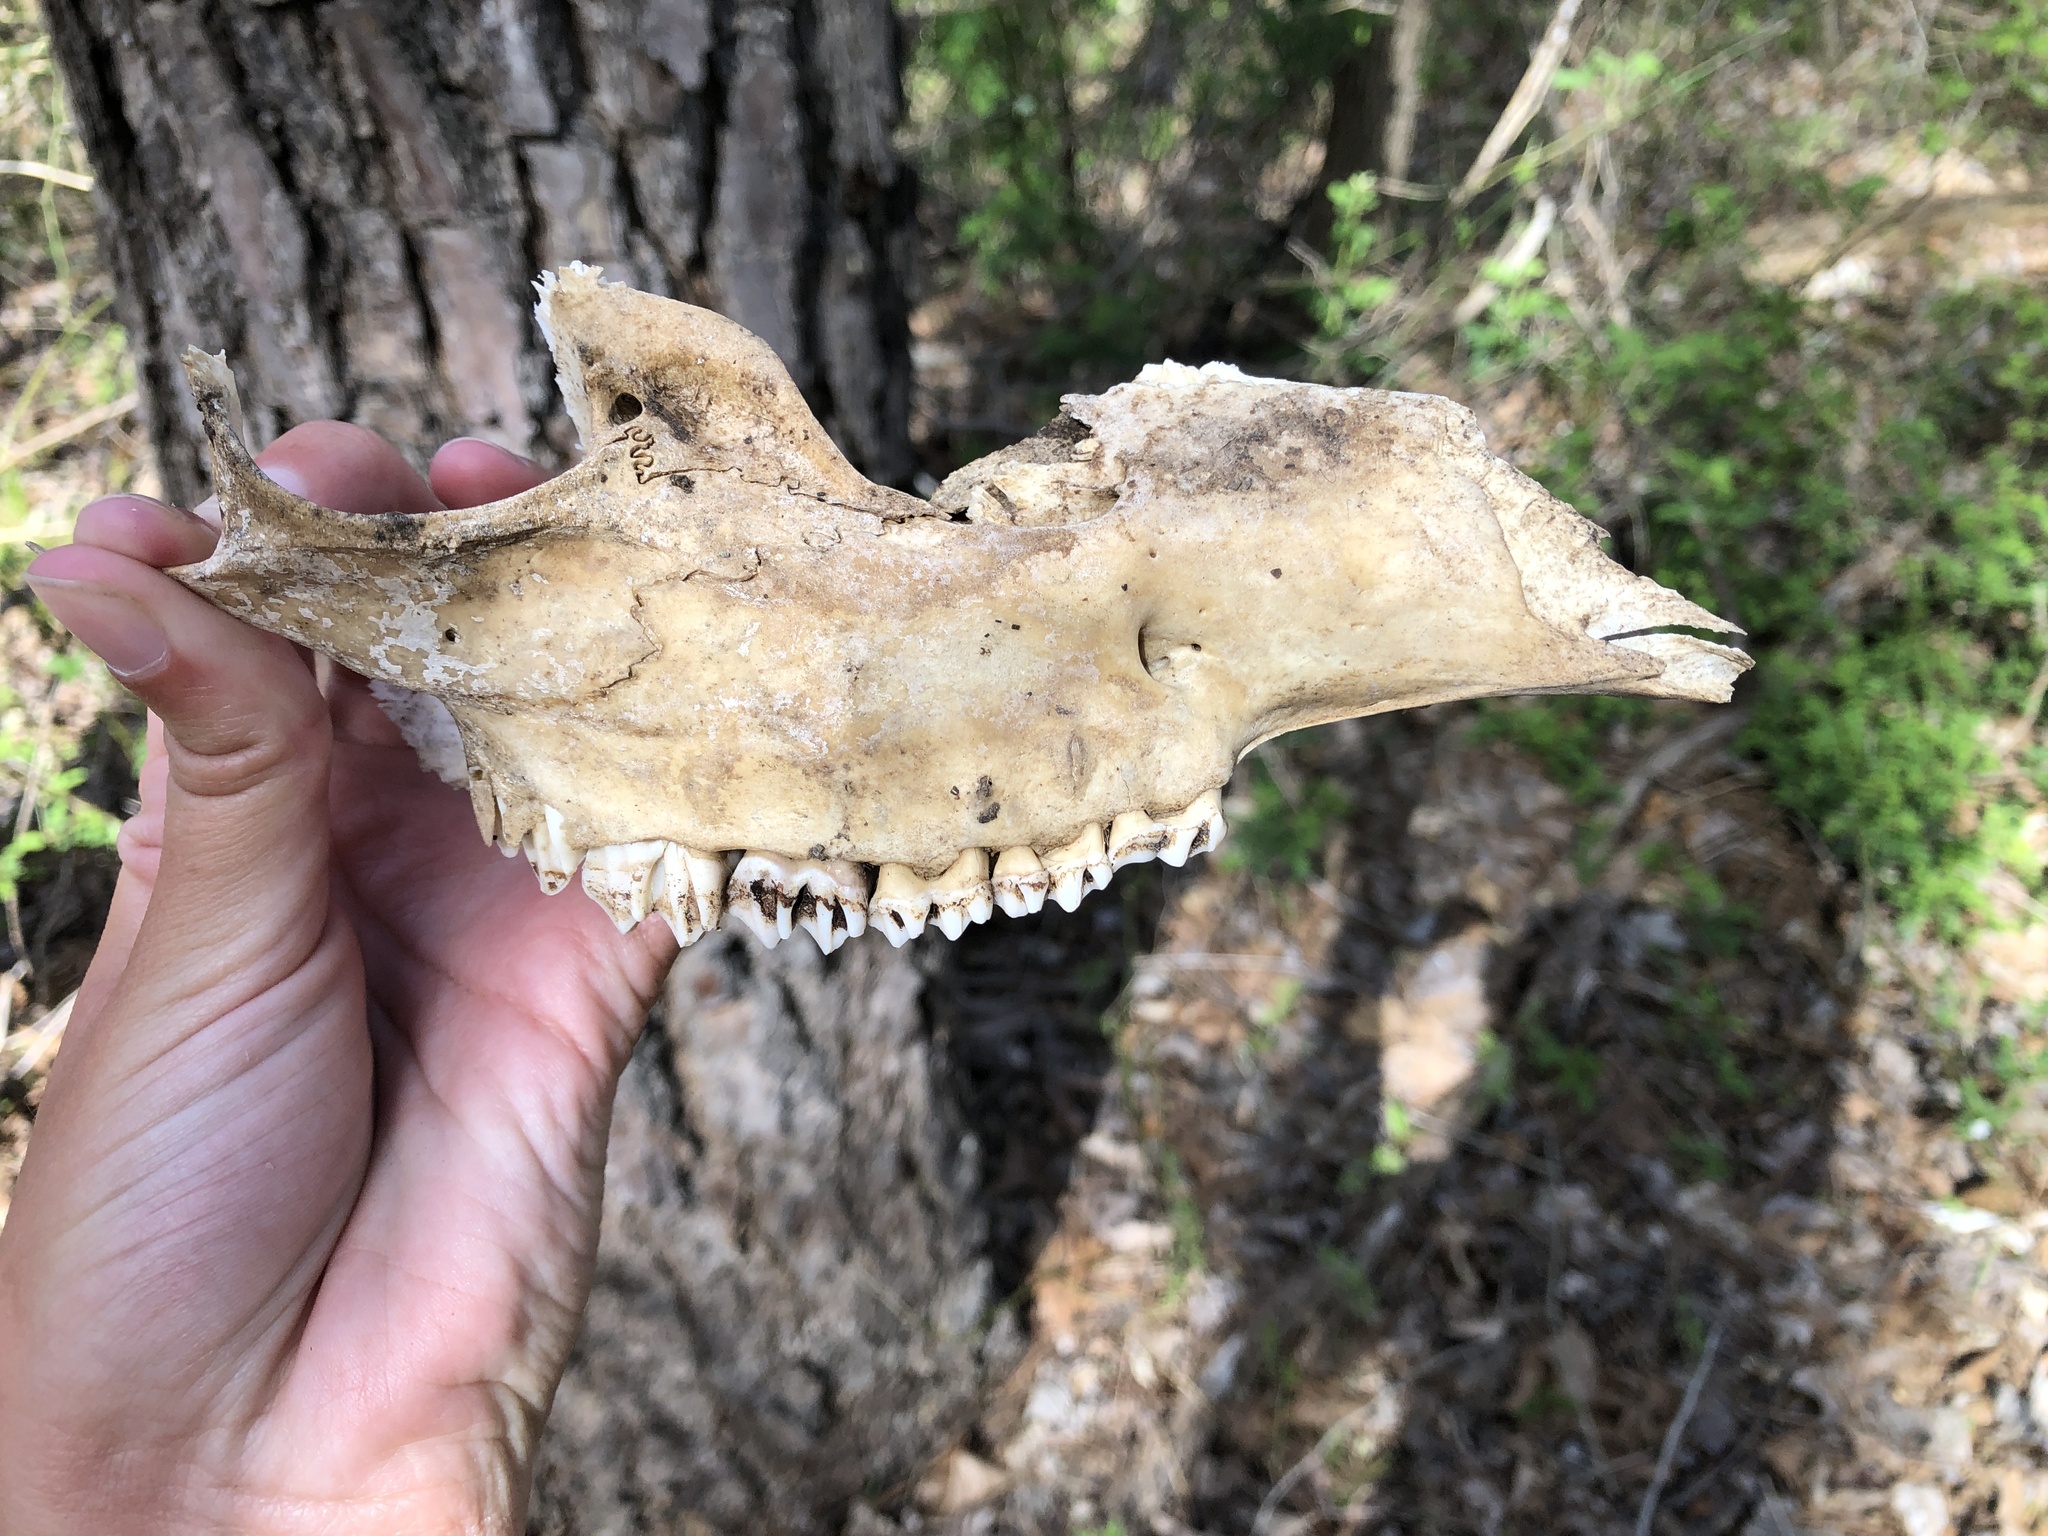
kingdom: Animalia
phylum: Chordata
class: Mammalia
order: Artiodactyla
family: Cervidae
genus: Odocoileus
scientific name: Odocoileus virginianus
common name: White-tailed deer
